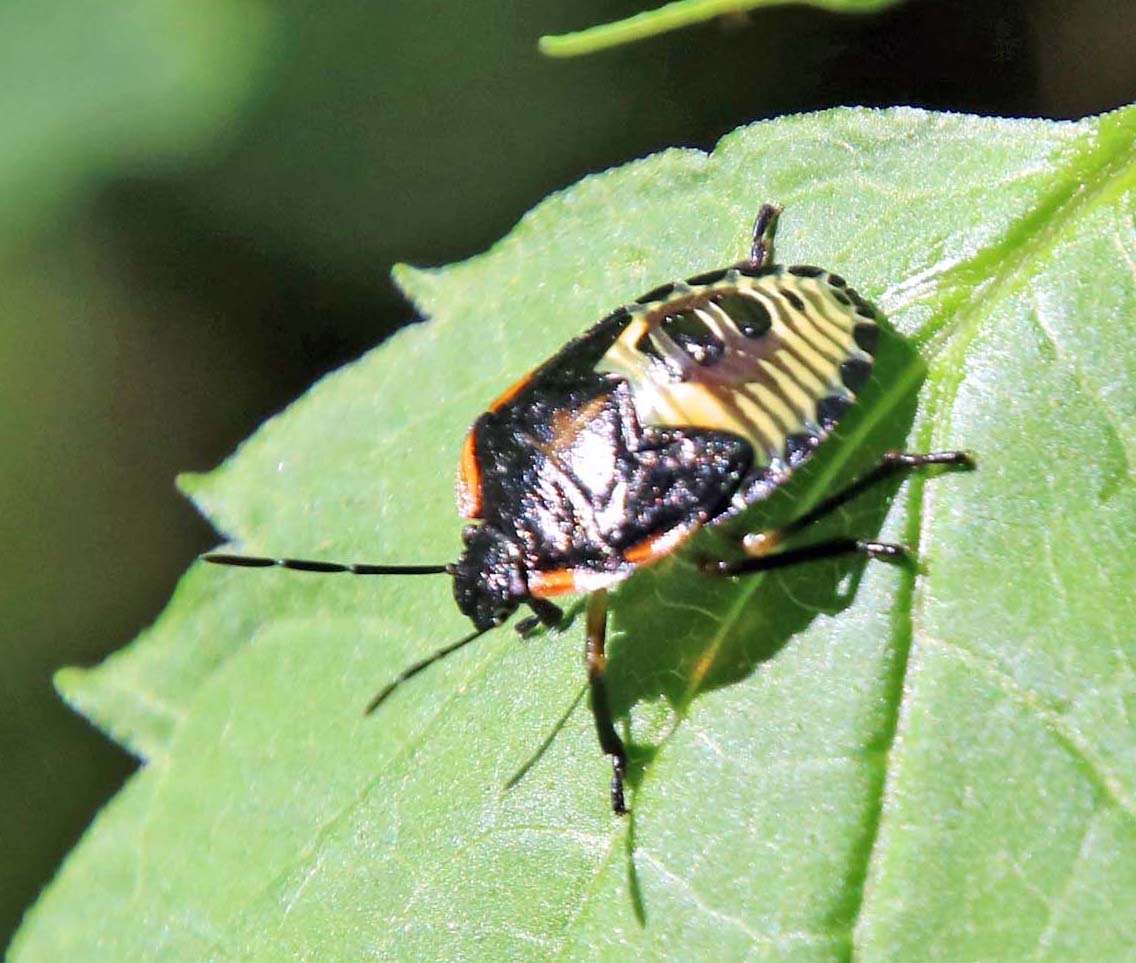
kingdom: Animalia
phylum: Arthropoda
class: Insecta
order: Hemiptera
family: Pentatomidae
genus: Chinavia
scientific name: Chinavia hilaris
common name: Green stink bug
